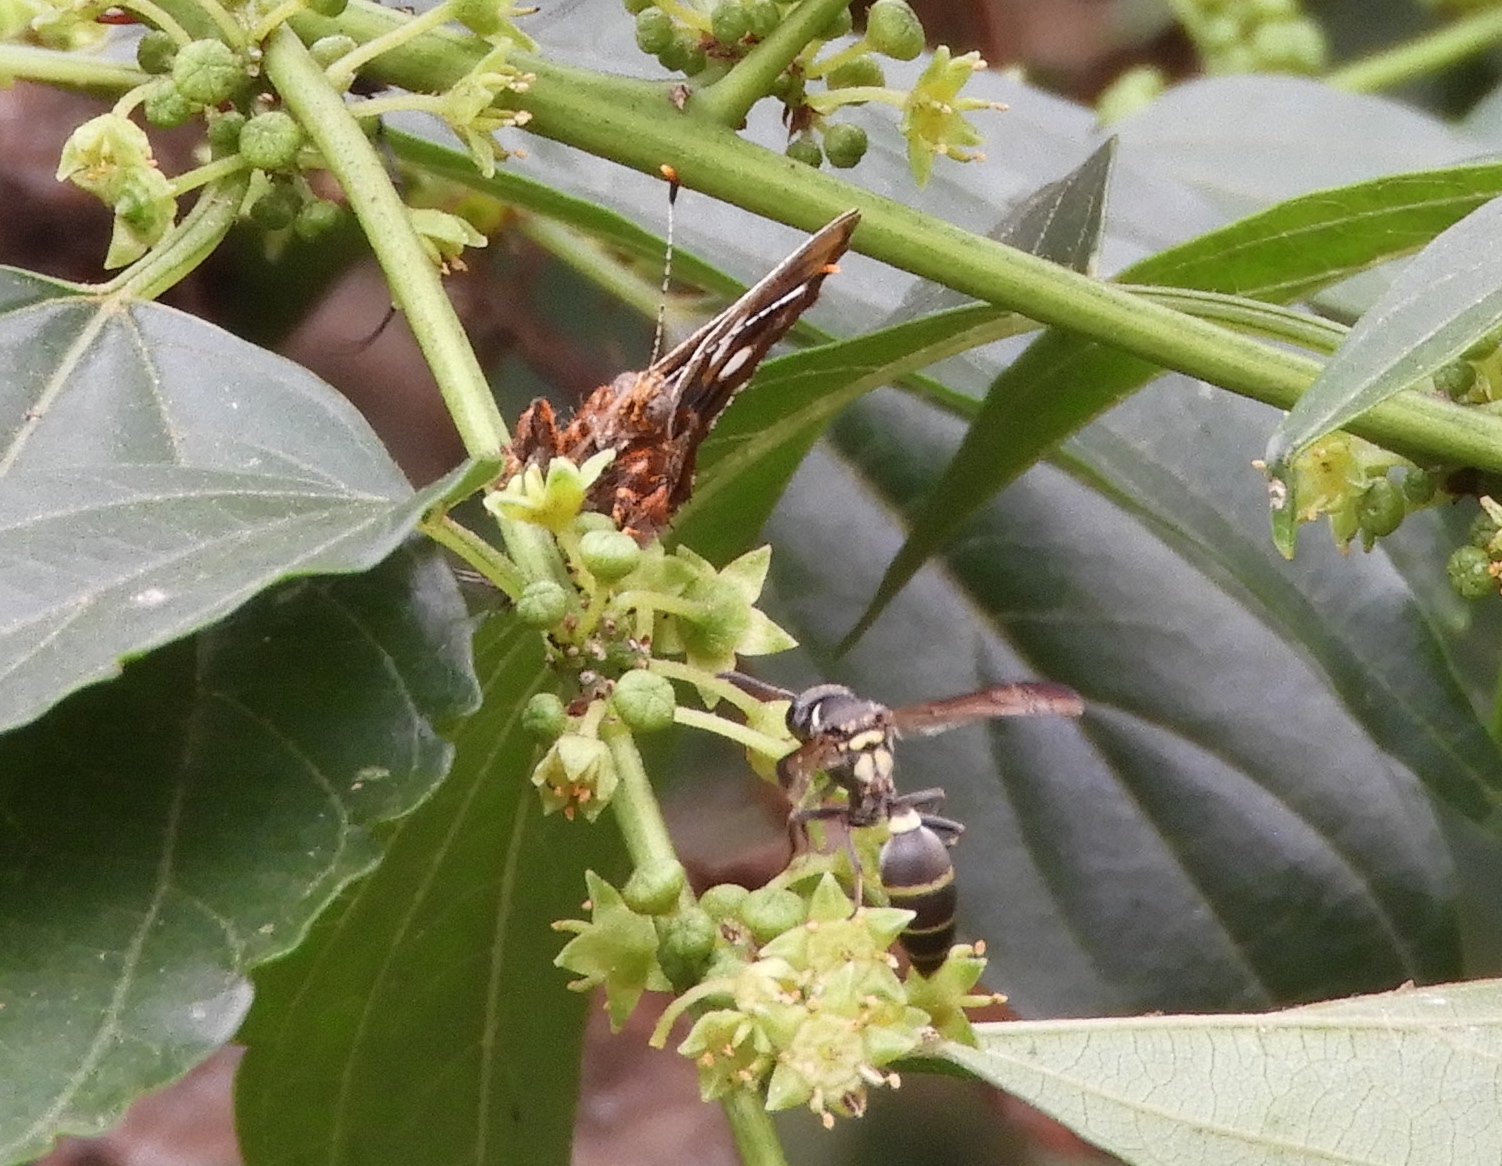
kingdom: Animalia
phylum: Arthropoda
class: Insecta
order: Hymenoptera
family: Vespidae
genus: Myrapetra
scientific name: Myrapetra
